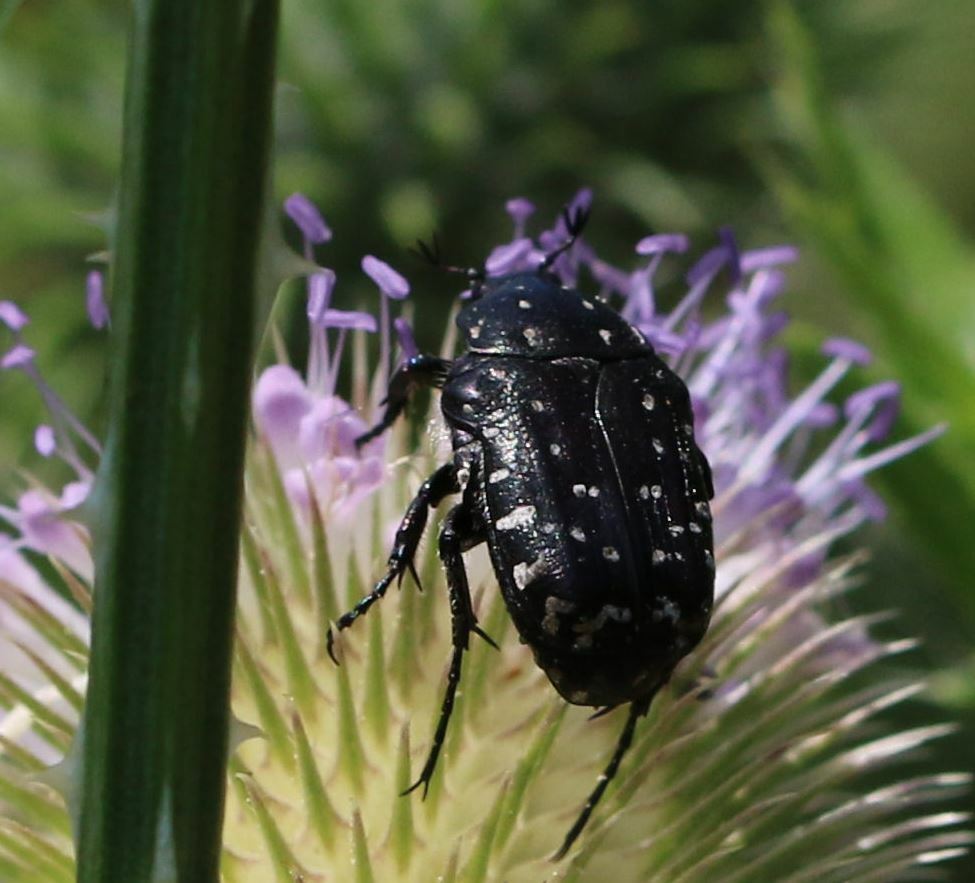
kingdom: Animalia
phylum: Arthropoda
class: Insecta
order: Coleoptera
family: Scarabaeidae
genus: Oxythyrea
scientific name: Oxythyrea funesta
